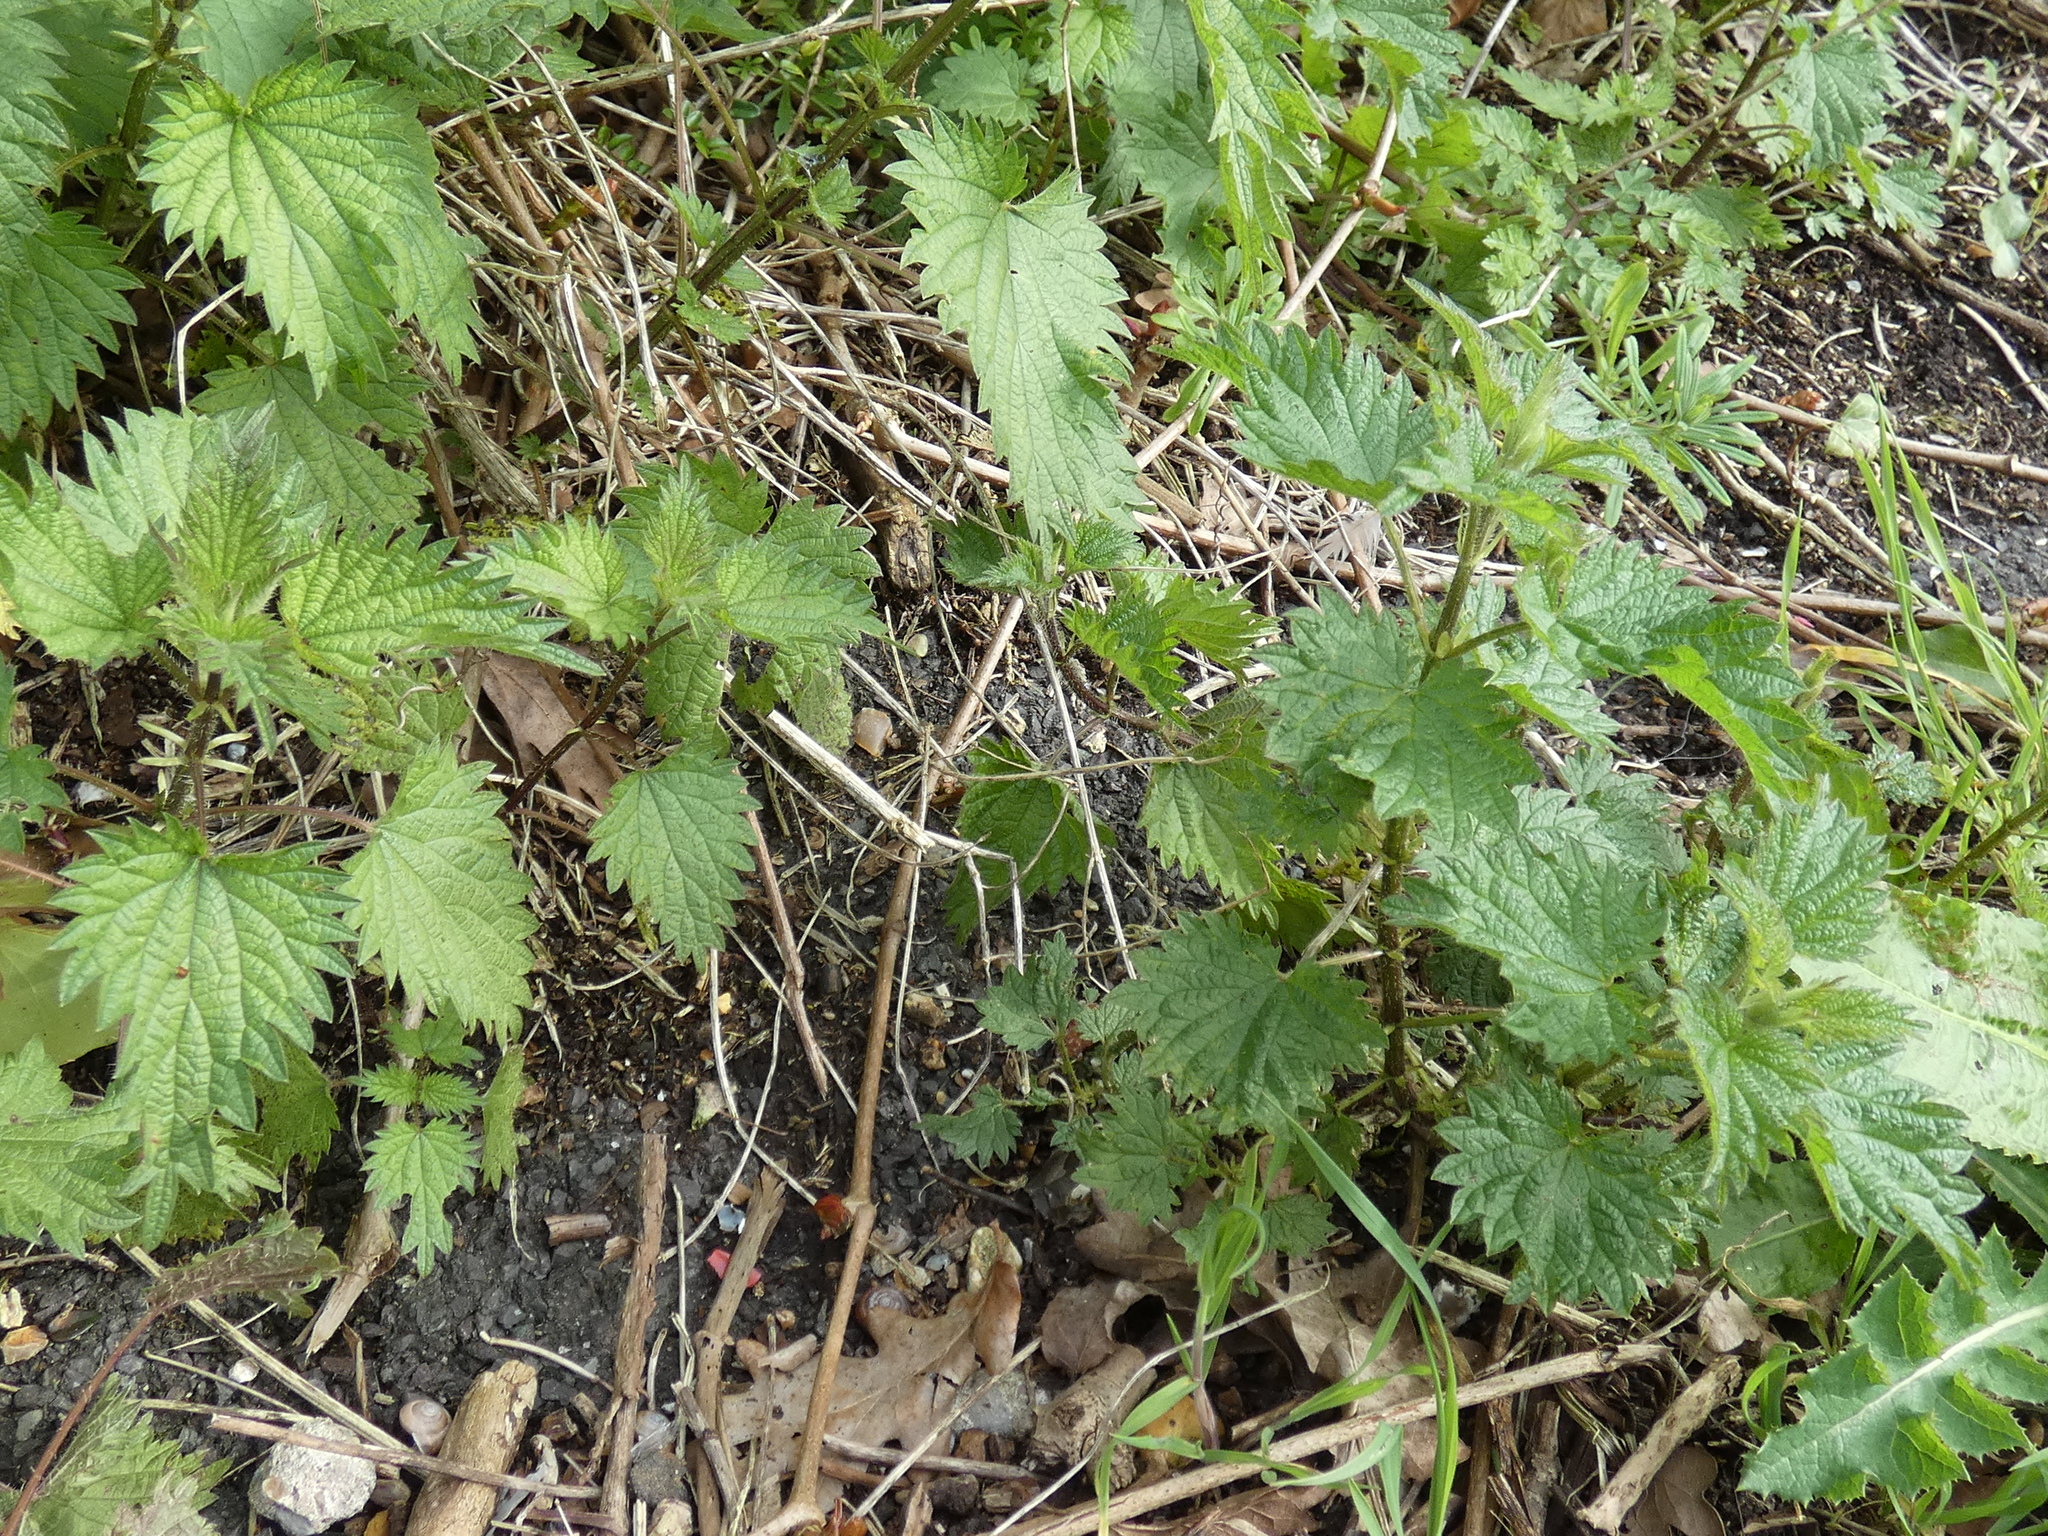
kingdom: Plantae
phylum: Tracheophyta
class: Magnoliopsida
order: Rosales
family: Urticaceae
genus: Urtica
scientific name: Urtica dioica
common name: Common nettle
